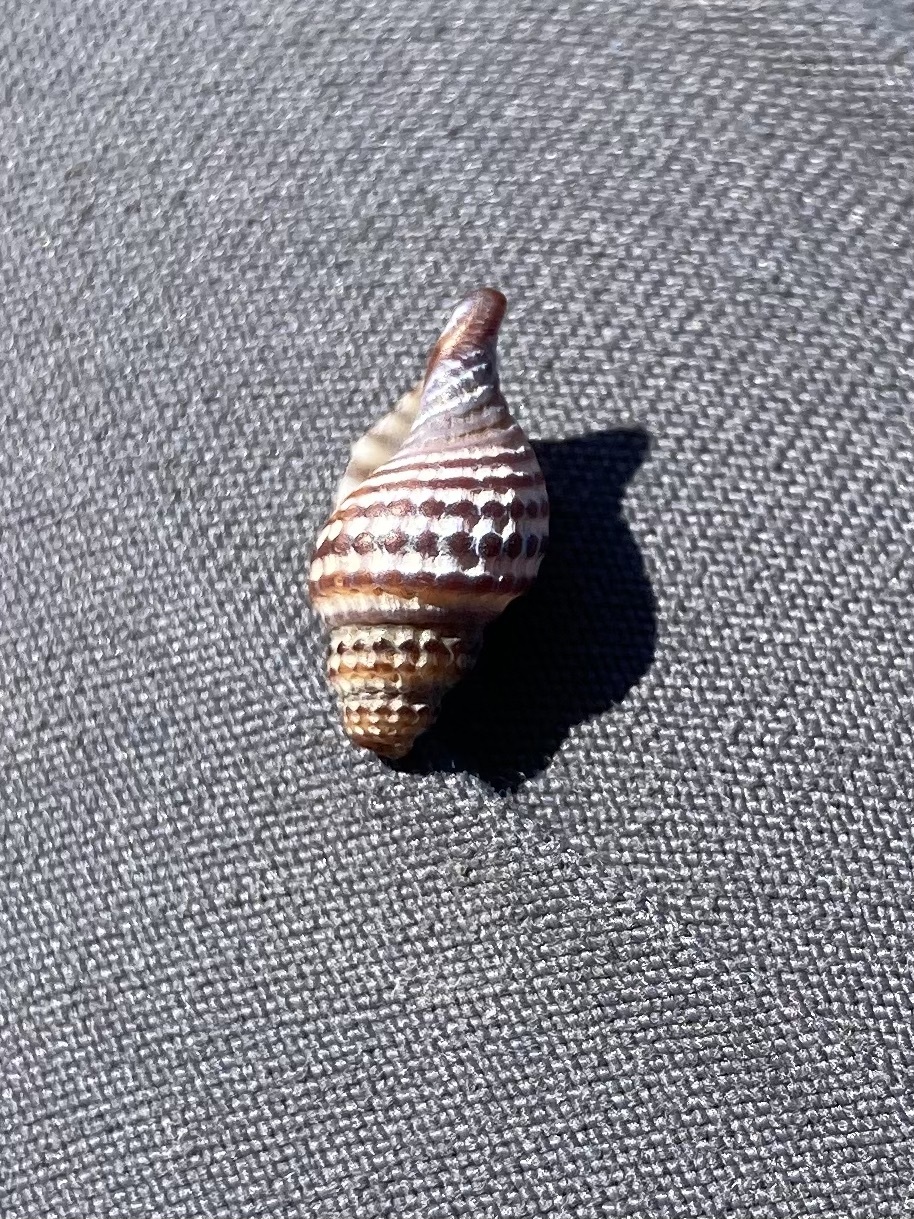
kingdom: Animalia
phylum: Mollusca
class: Gastropoda
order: Neogastropoda
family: Muricidae
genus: Xymene
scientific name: Xymene plebeius
